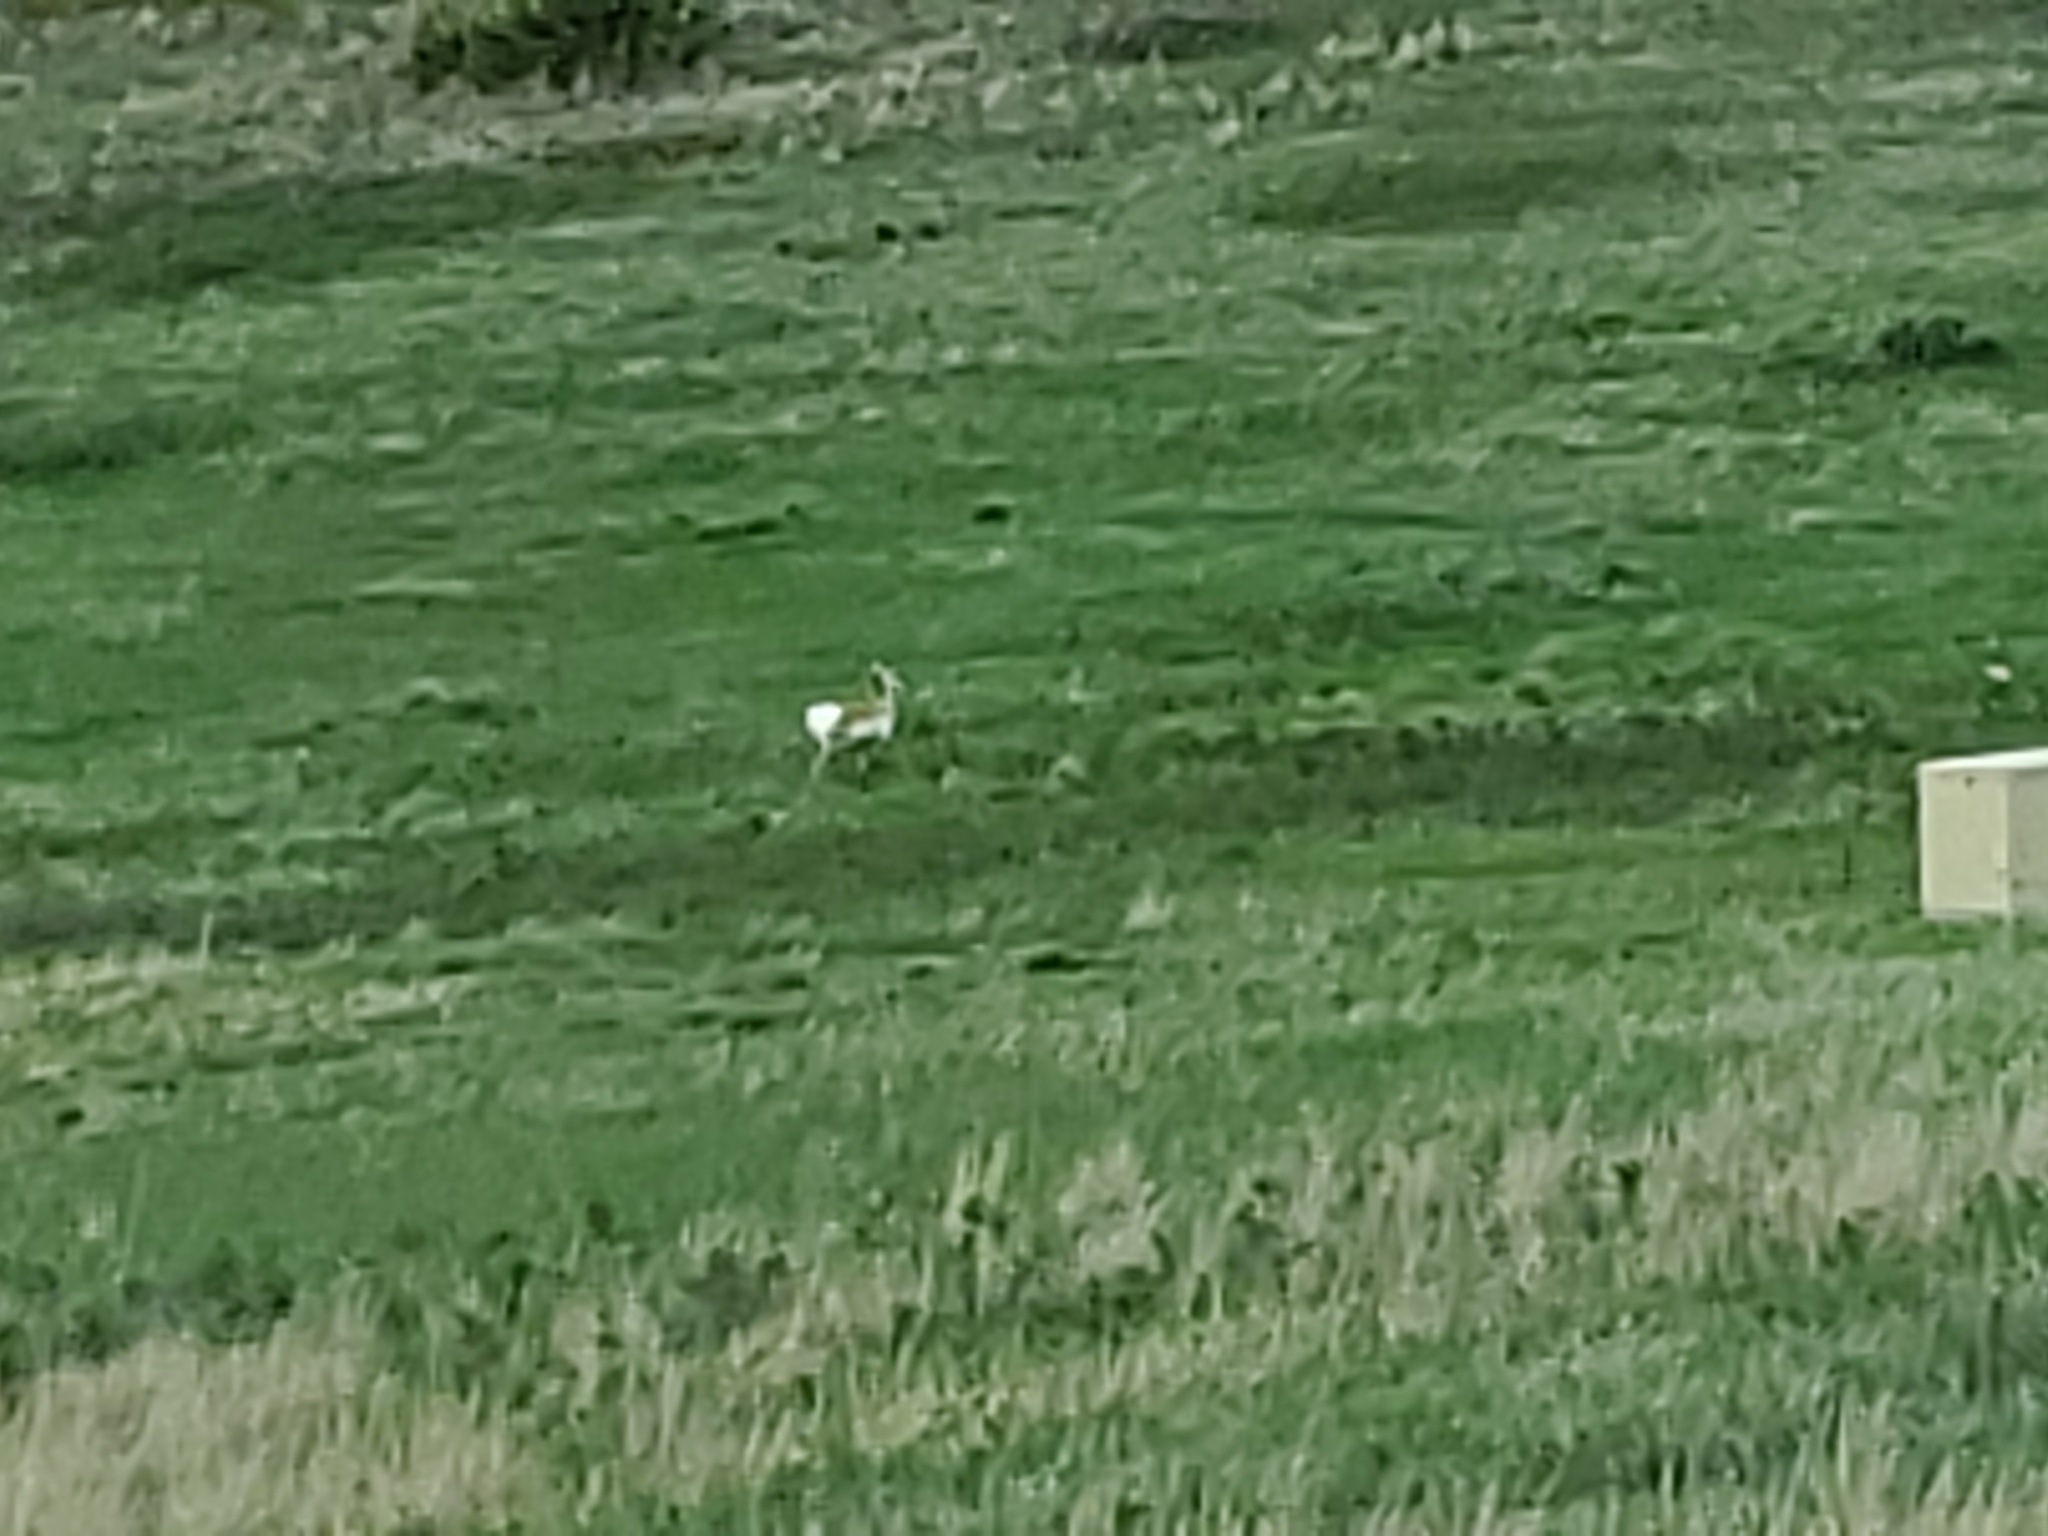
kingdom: Animalia
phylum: Chordata
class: Mammalia
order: Artiodactyla
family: Antilocapridae
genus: Antilocapra
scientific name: Antilocapra americana
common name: Pronghorn
